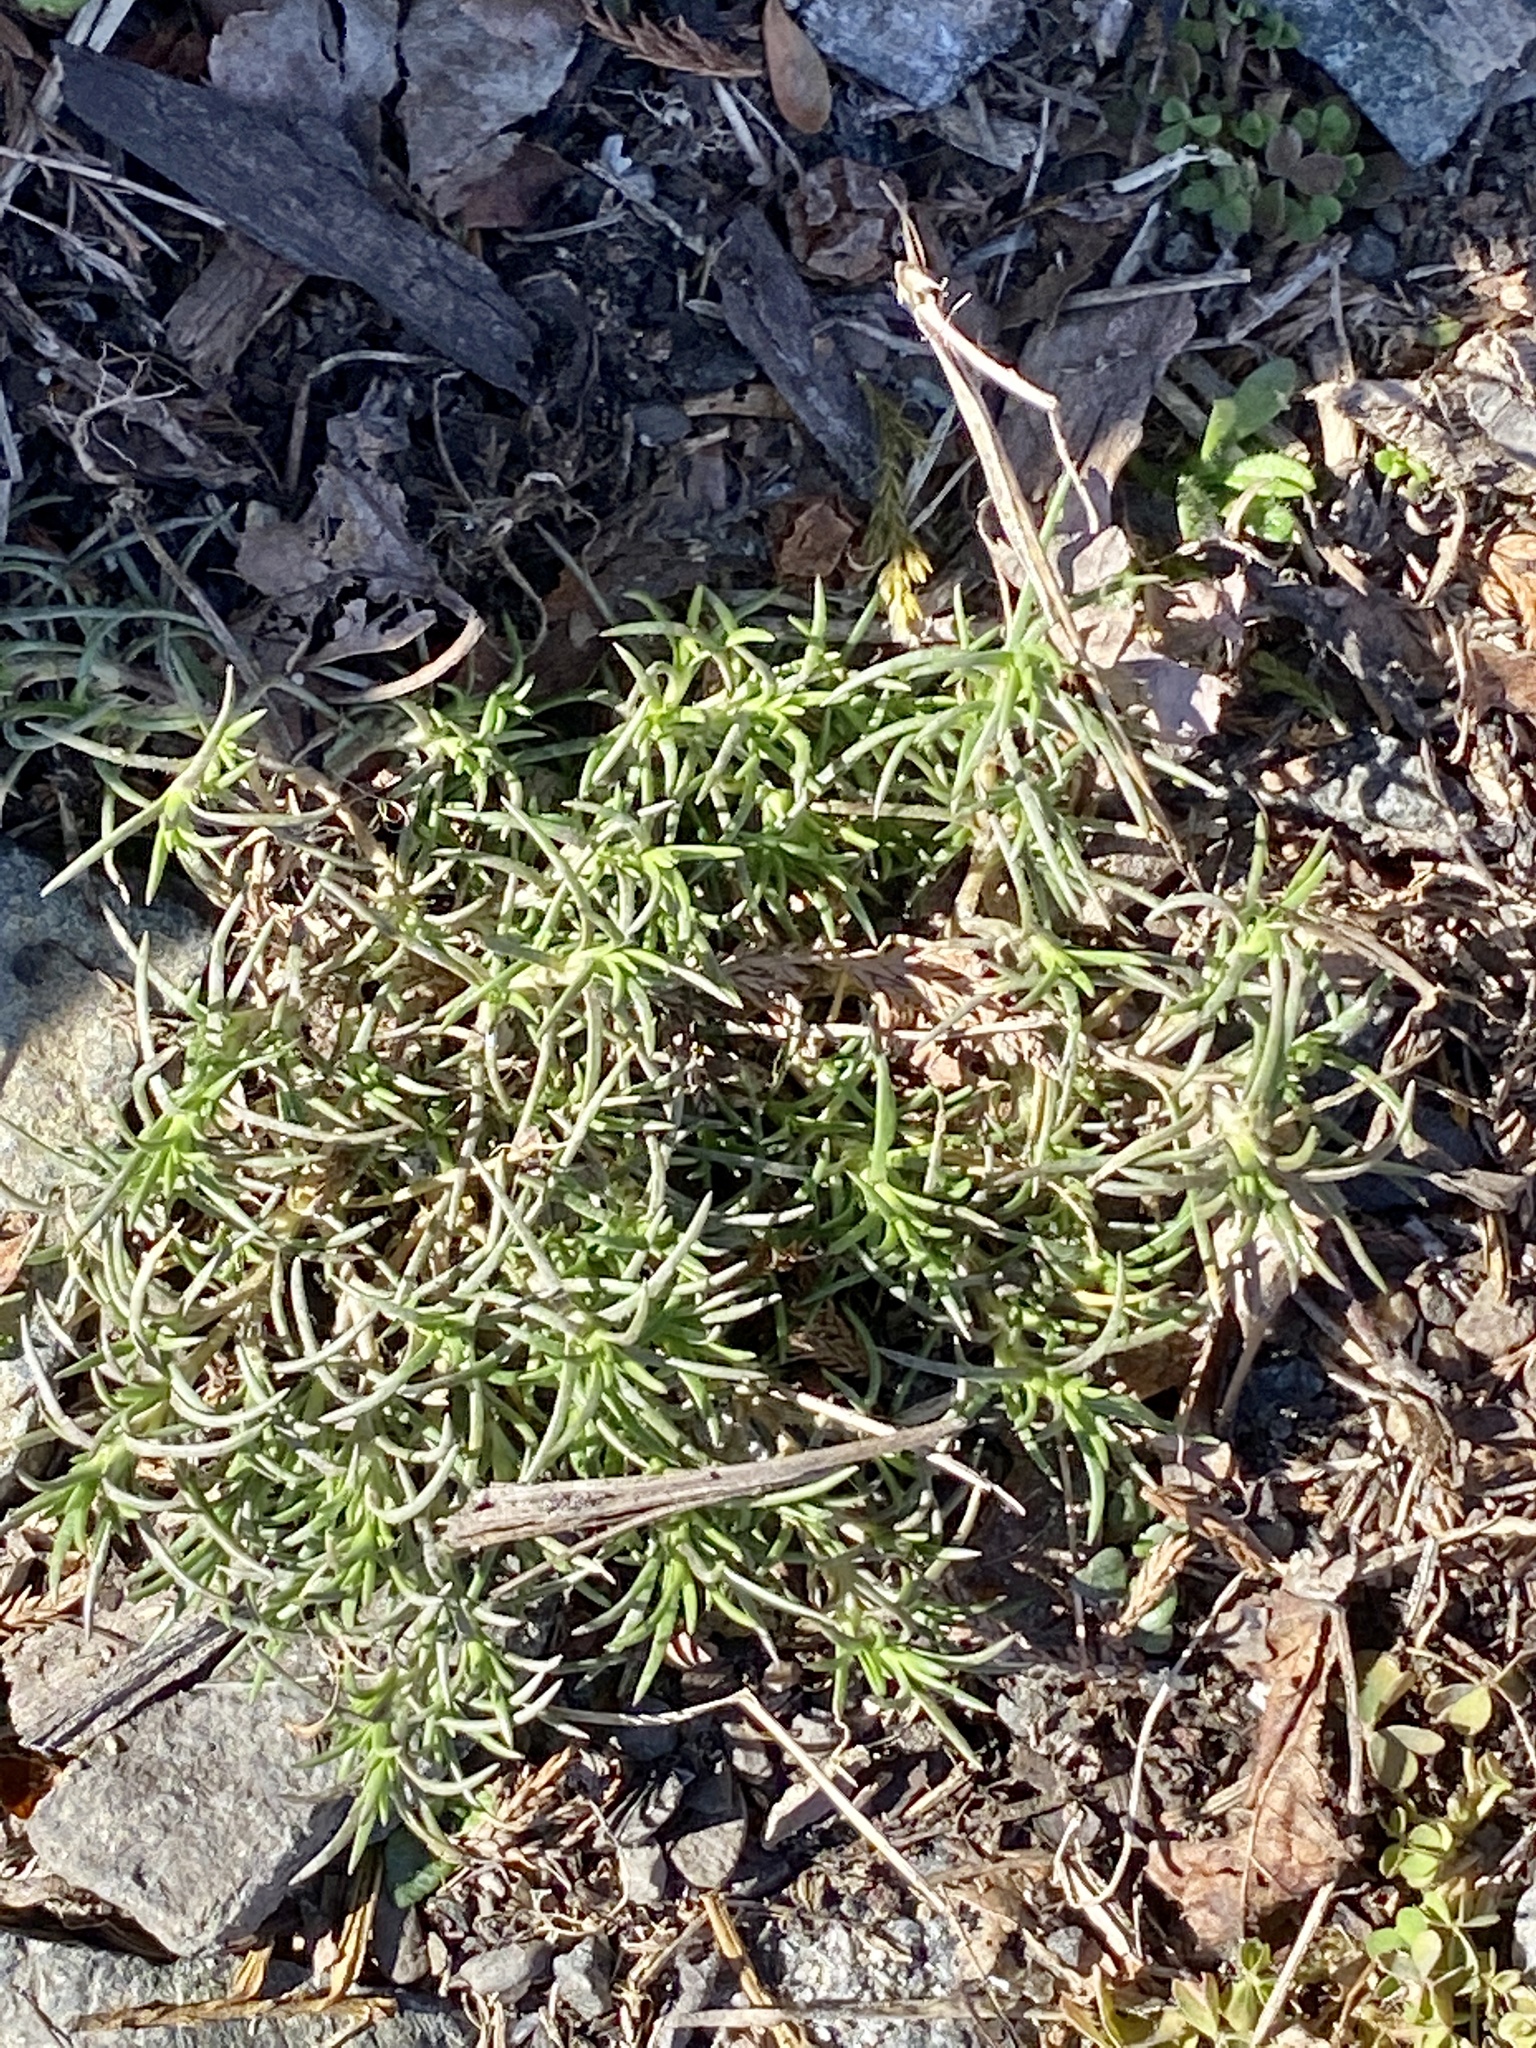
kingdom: Plantae
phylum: Tracheophyta
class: Magnoliopsida
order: Caryophyllales
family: Caryophyllaceae
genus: Scleranthus
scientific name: Scleranthus annuus
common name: Annual knawel
